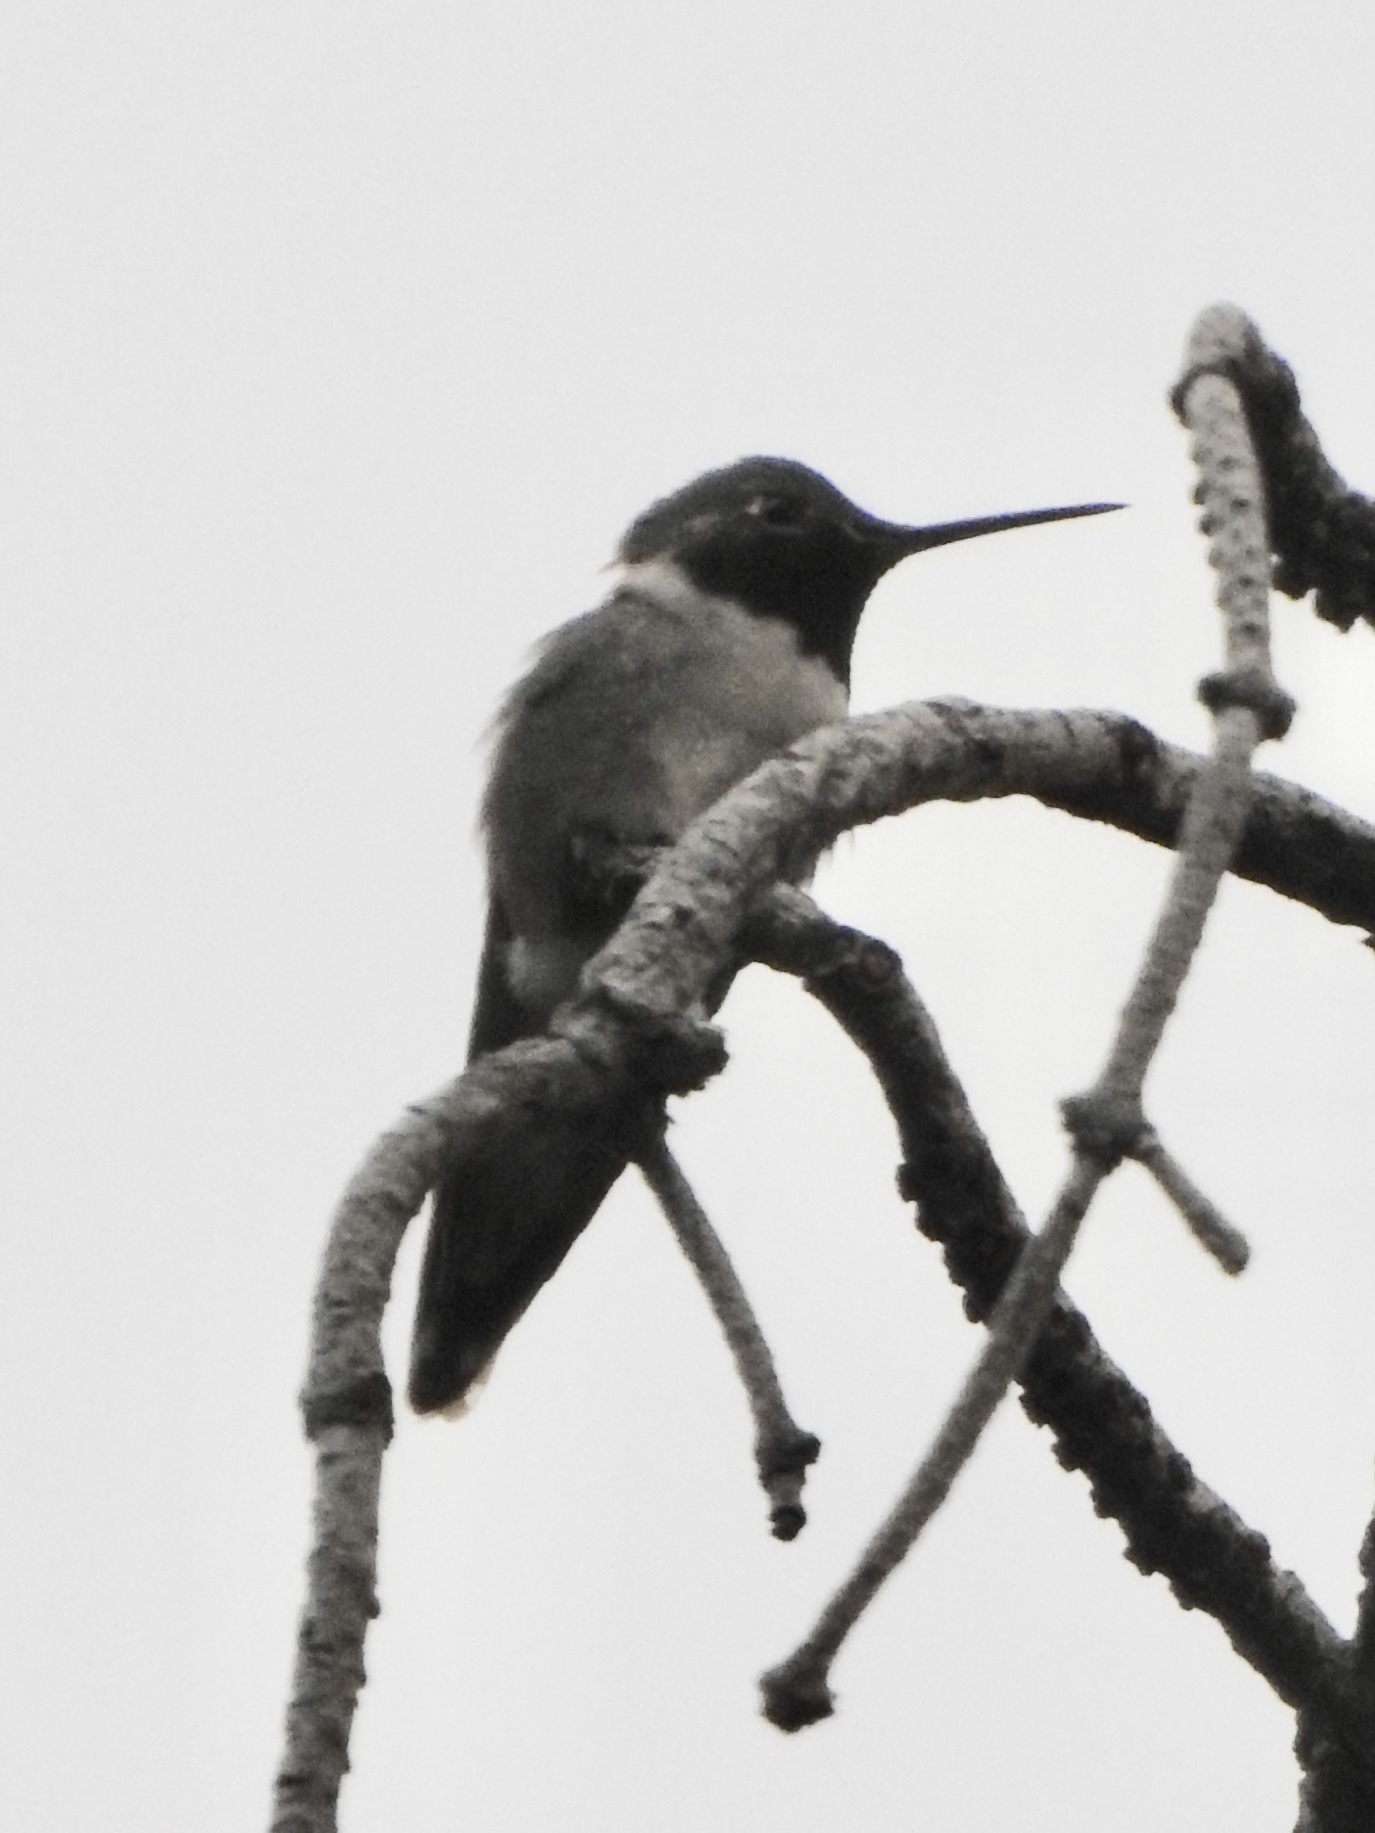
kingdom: Animalia
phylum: Chordata
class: Aves
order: Apodiformes
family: Trochilidae
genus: Selasphorus
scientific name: Selasphorus platycercus
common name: Broad-tailed hummingbird
